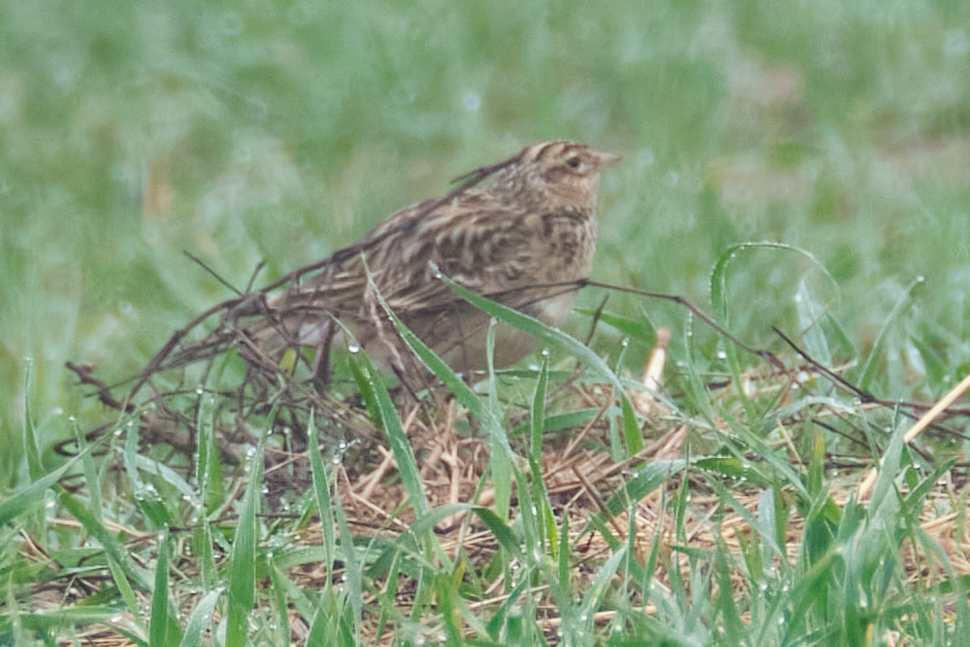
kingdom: Animalia
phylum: Chordata
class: Aves
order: Passeriformes
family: Alaudidae
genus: Alauda
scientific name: Alauda arvensis
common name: Eurasian skylark
